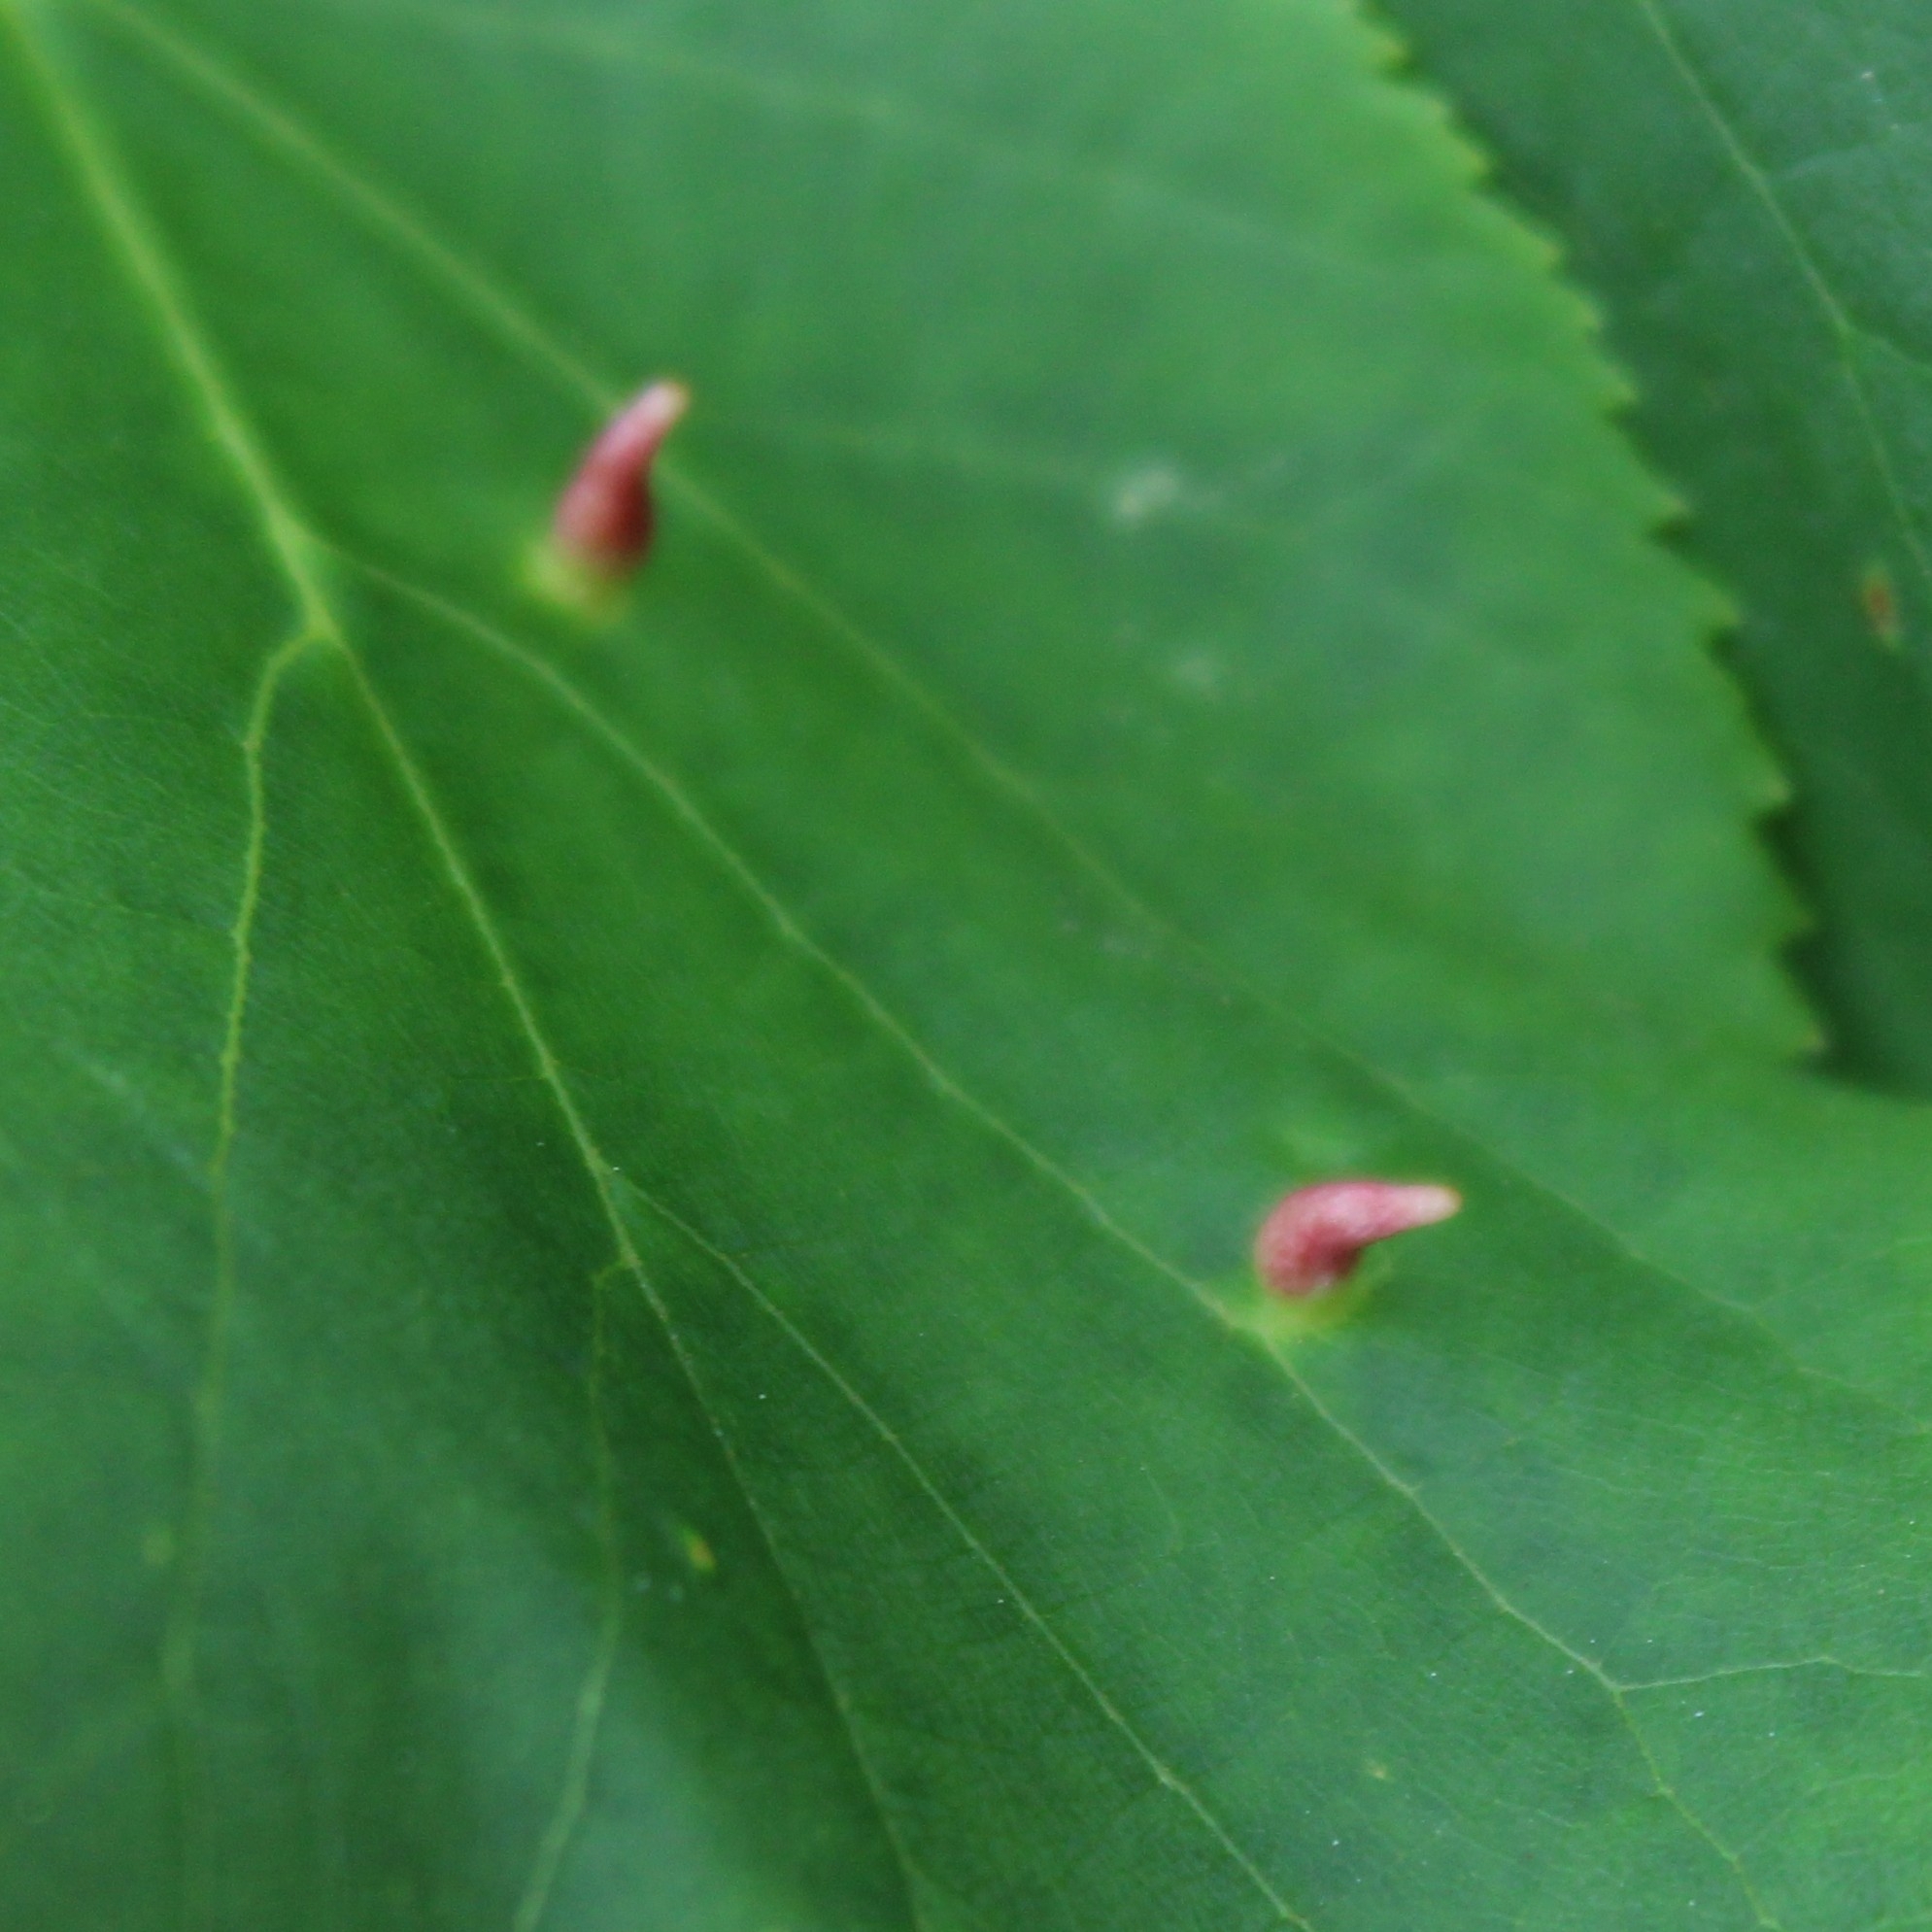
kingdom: Animalia
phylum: Arthropoda
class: Arachnida
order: Trombidiformes
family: Eriophyidae
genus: Eriophyes
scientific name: Eriophyes tiliae
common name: Red nail gall mite
